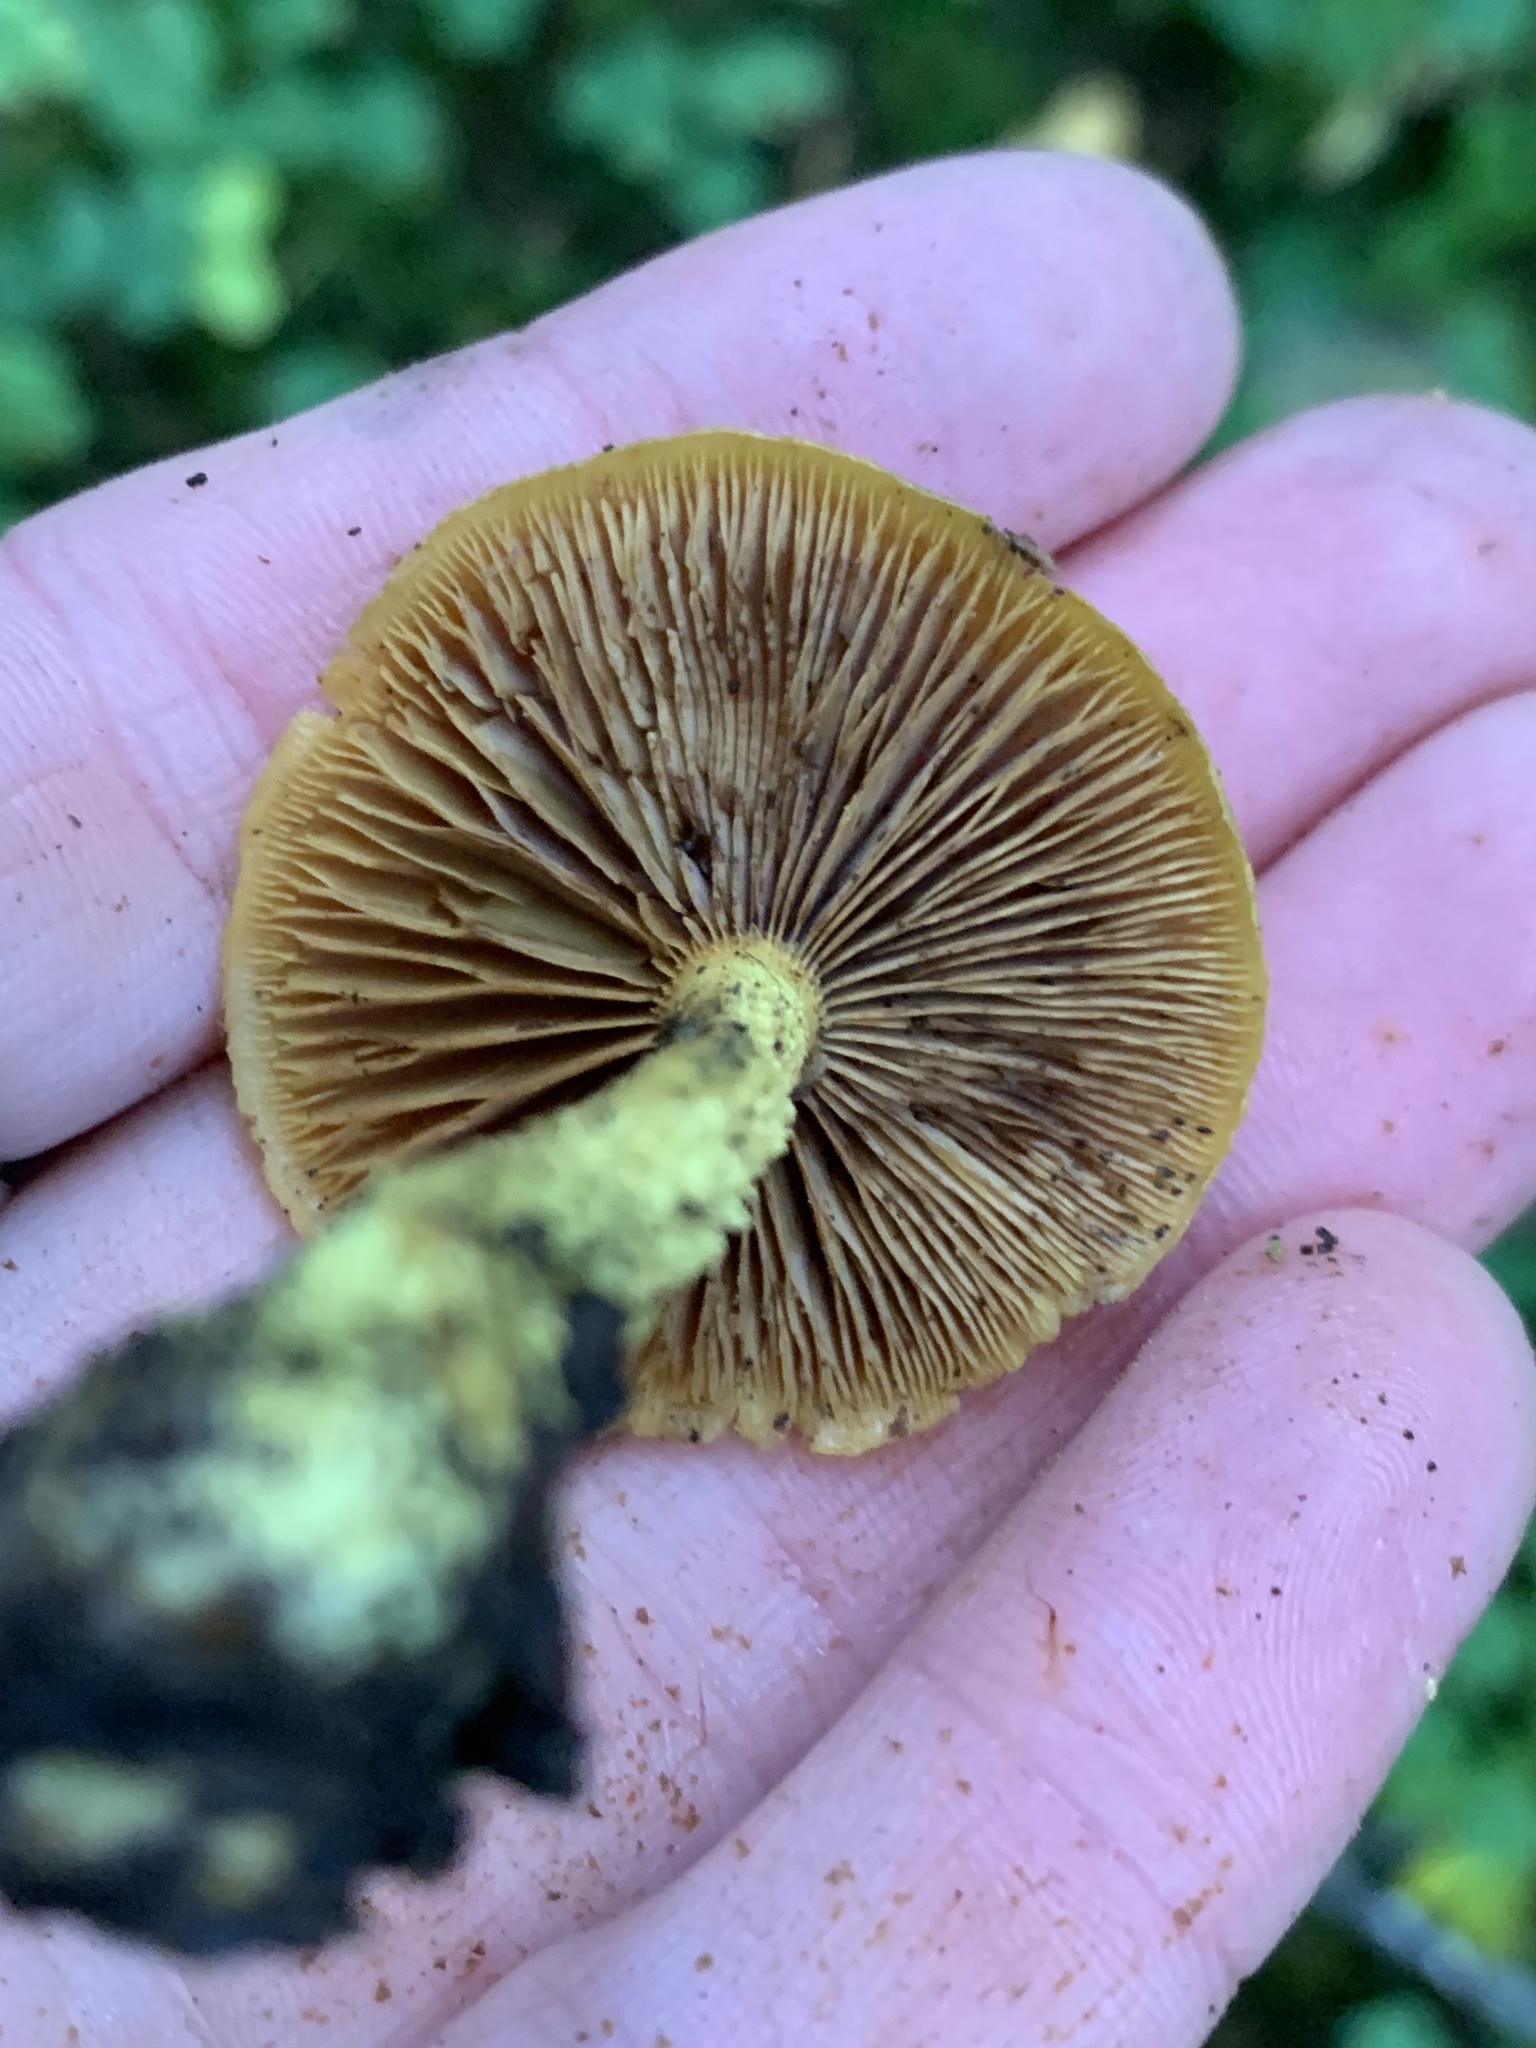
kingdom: Fungi
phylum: Basidiomycota
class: Agaricomycetes
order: Agaricales
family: Strophariaceae
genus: Pholiota
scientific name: Pholiota flammans
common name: Flaming scalycap
